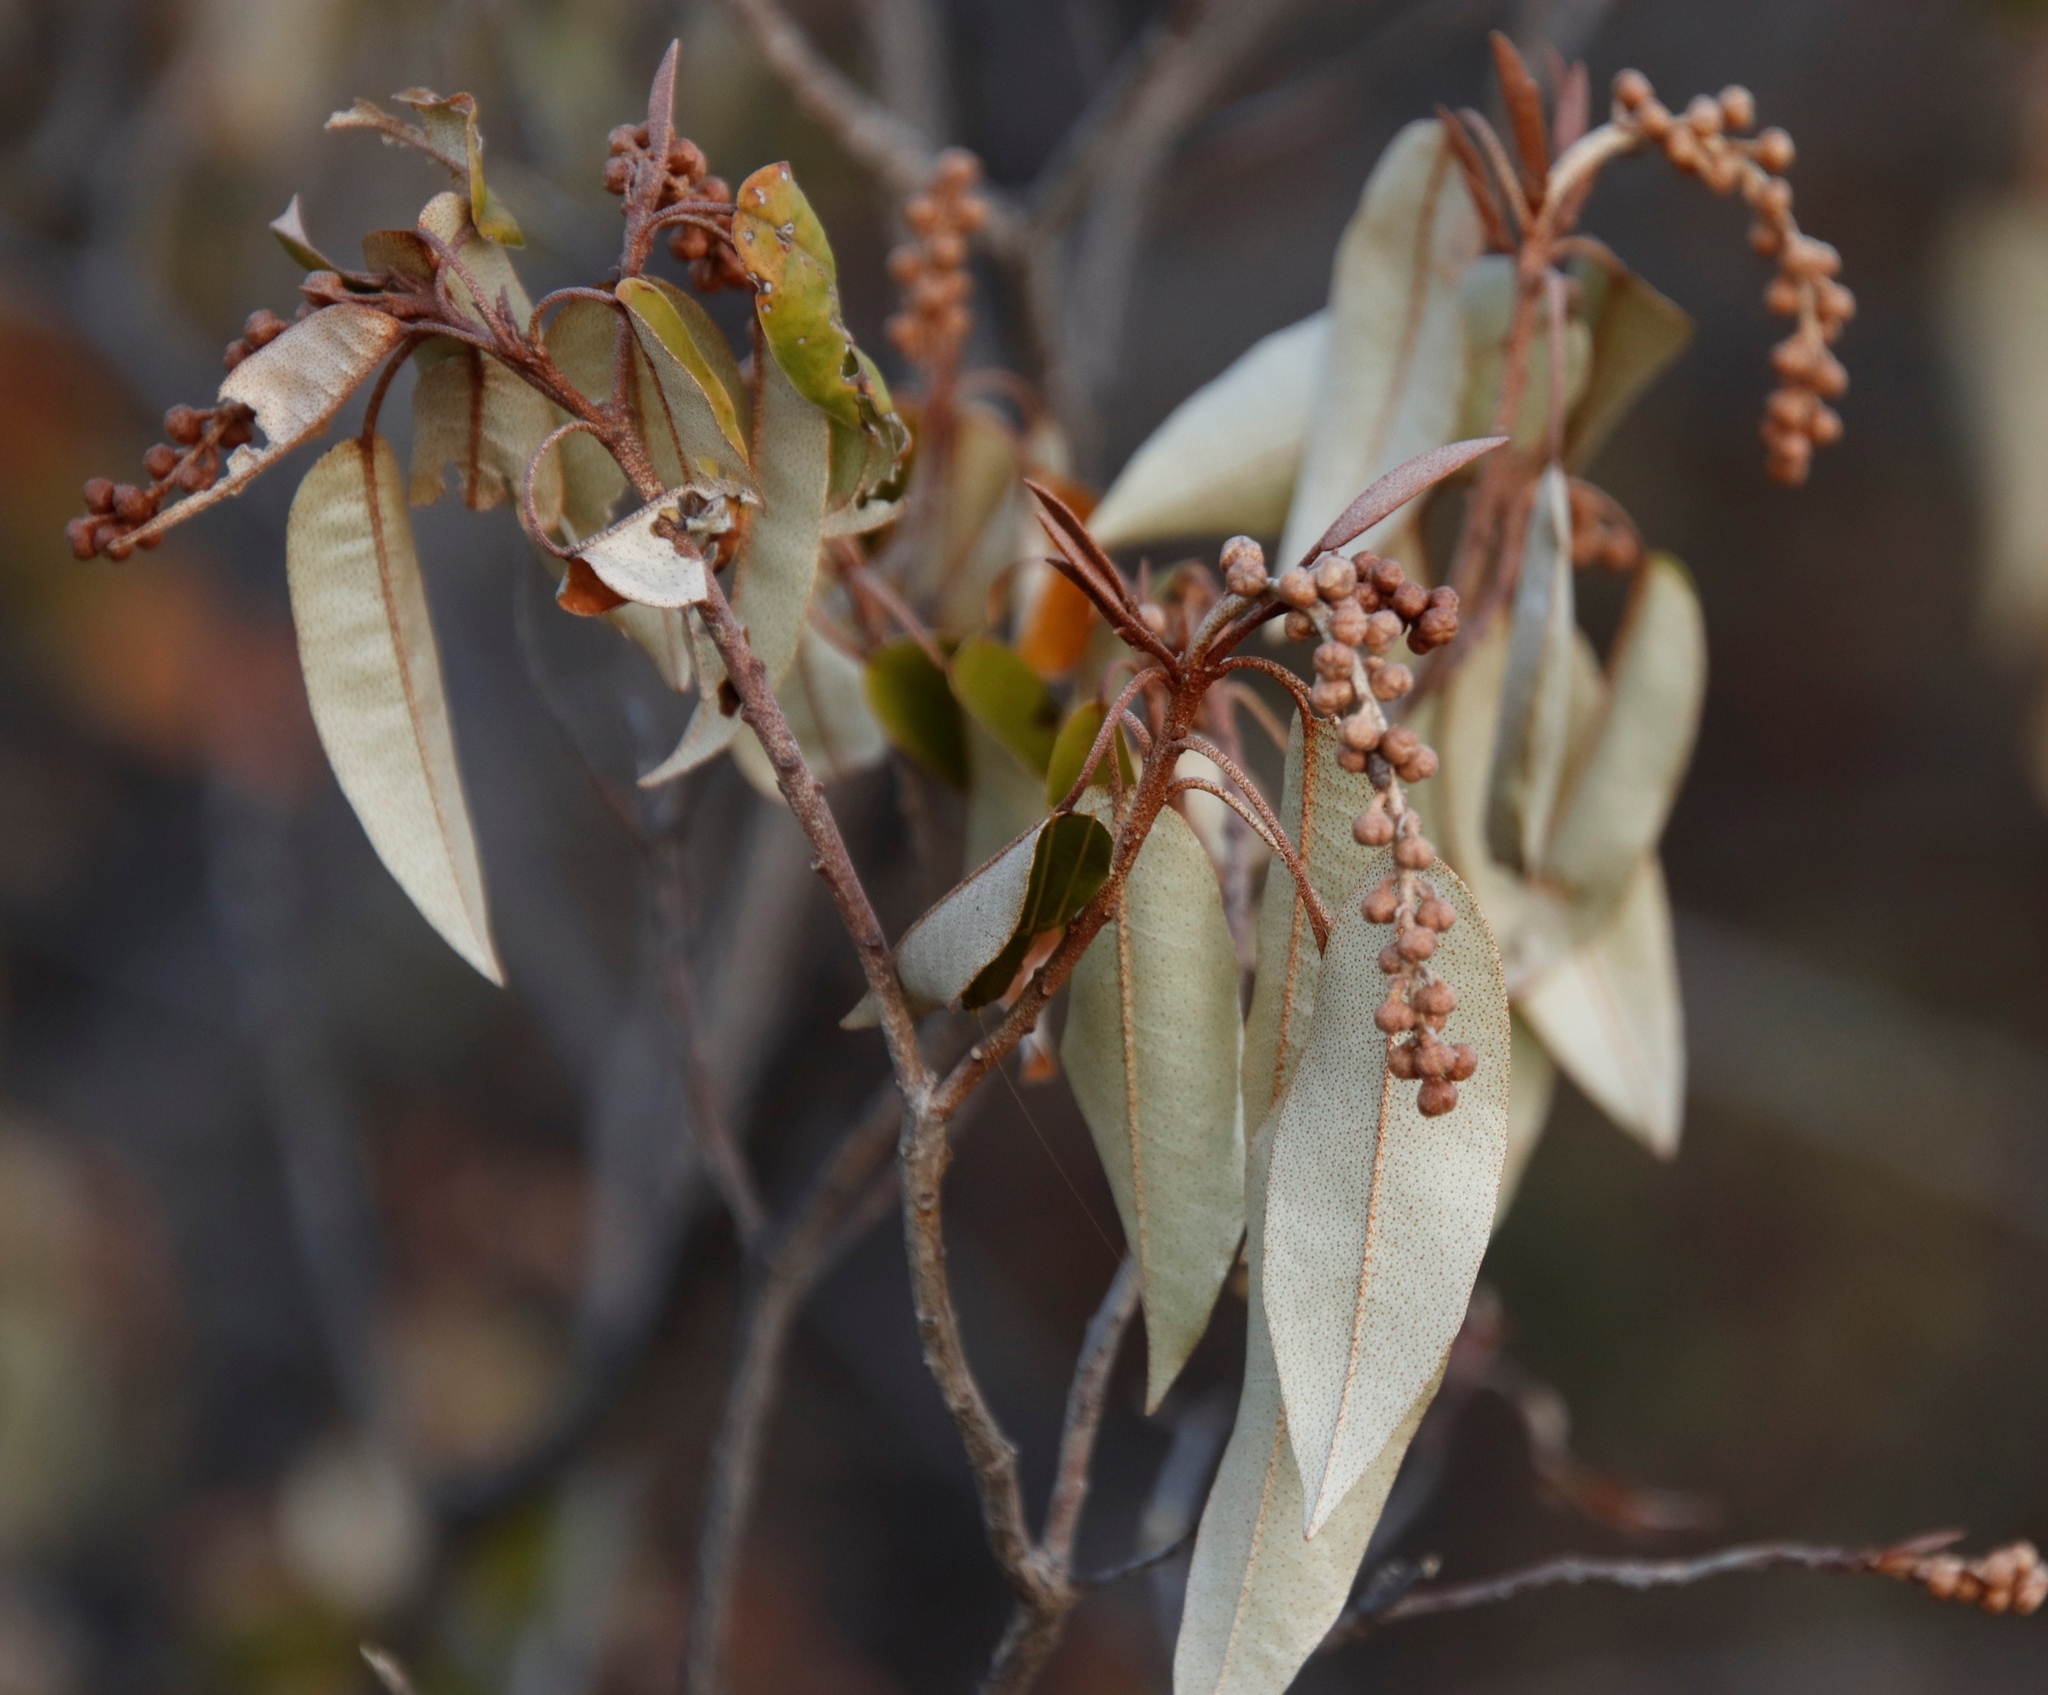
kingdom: Plantae
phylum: Tracheophyta
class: Magnoliopsida
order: Malpighiales
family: Euphorbiaceae
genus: Croton
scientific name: Croton gratissimus
